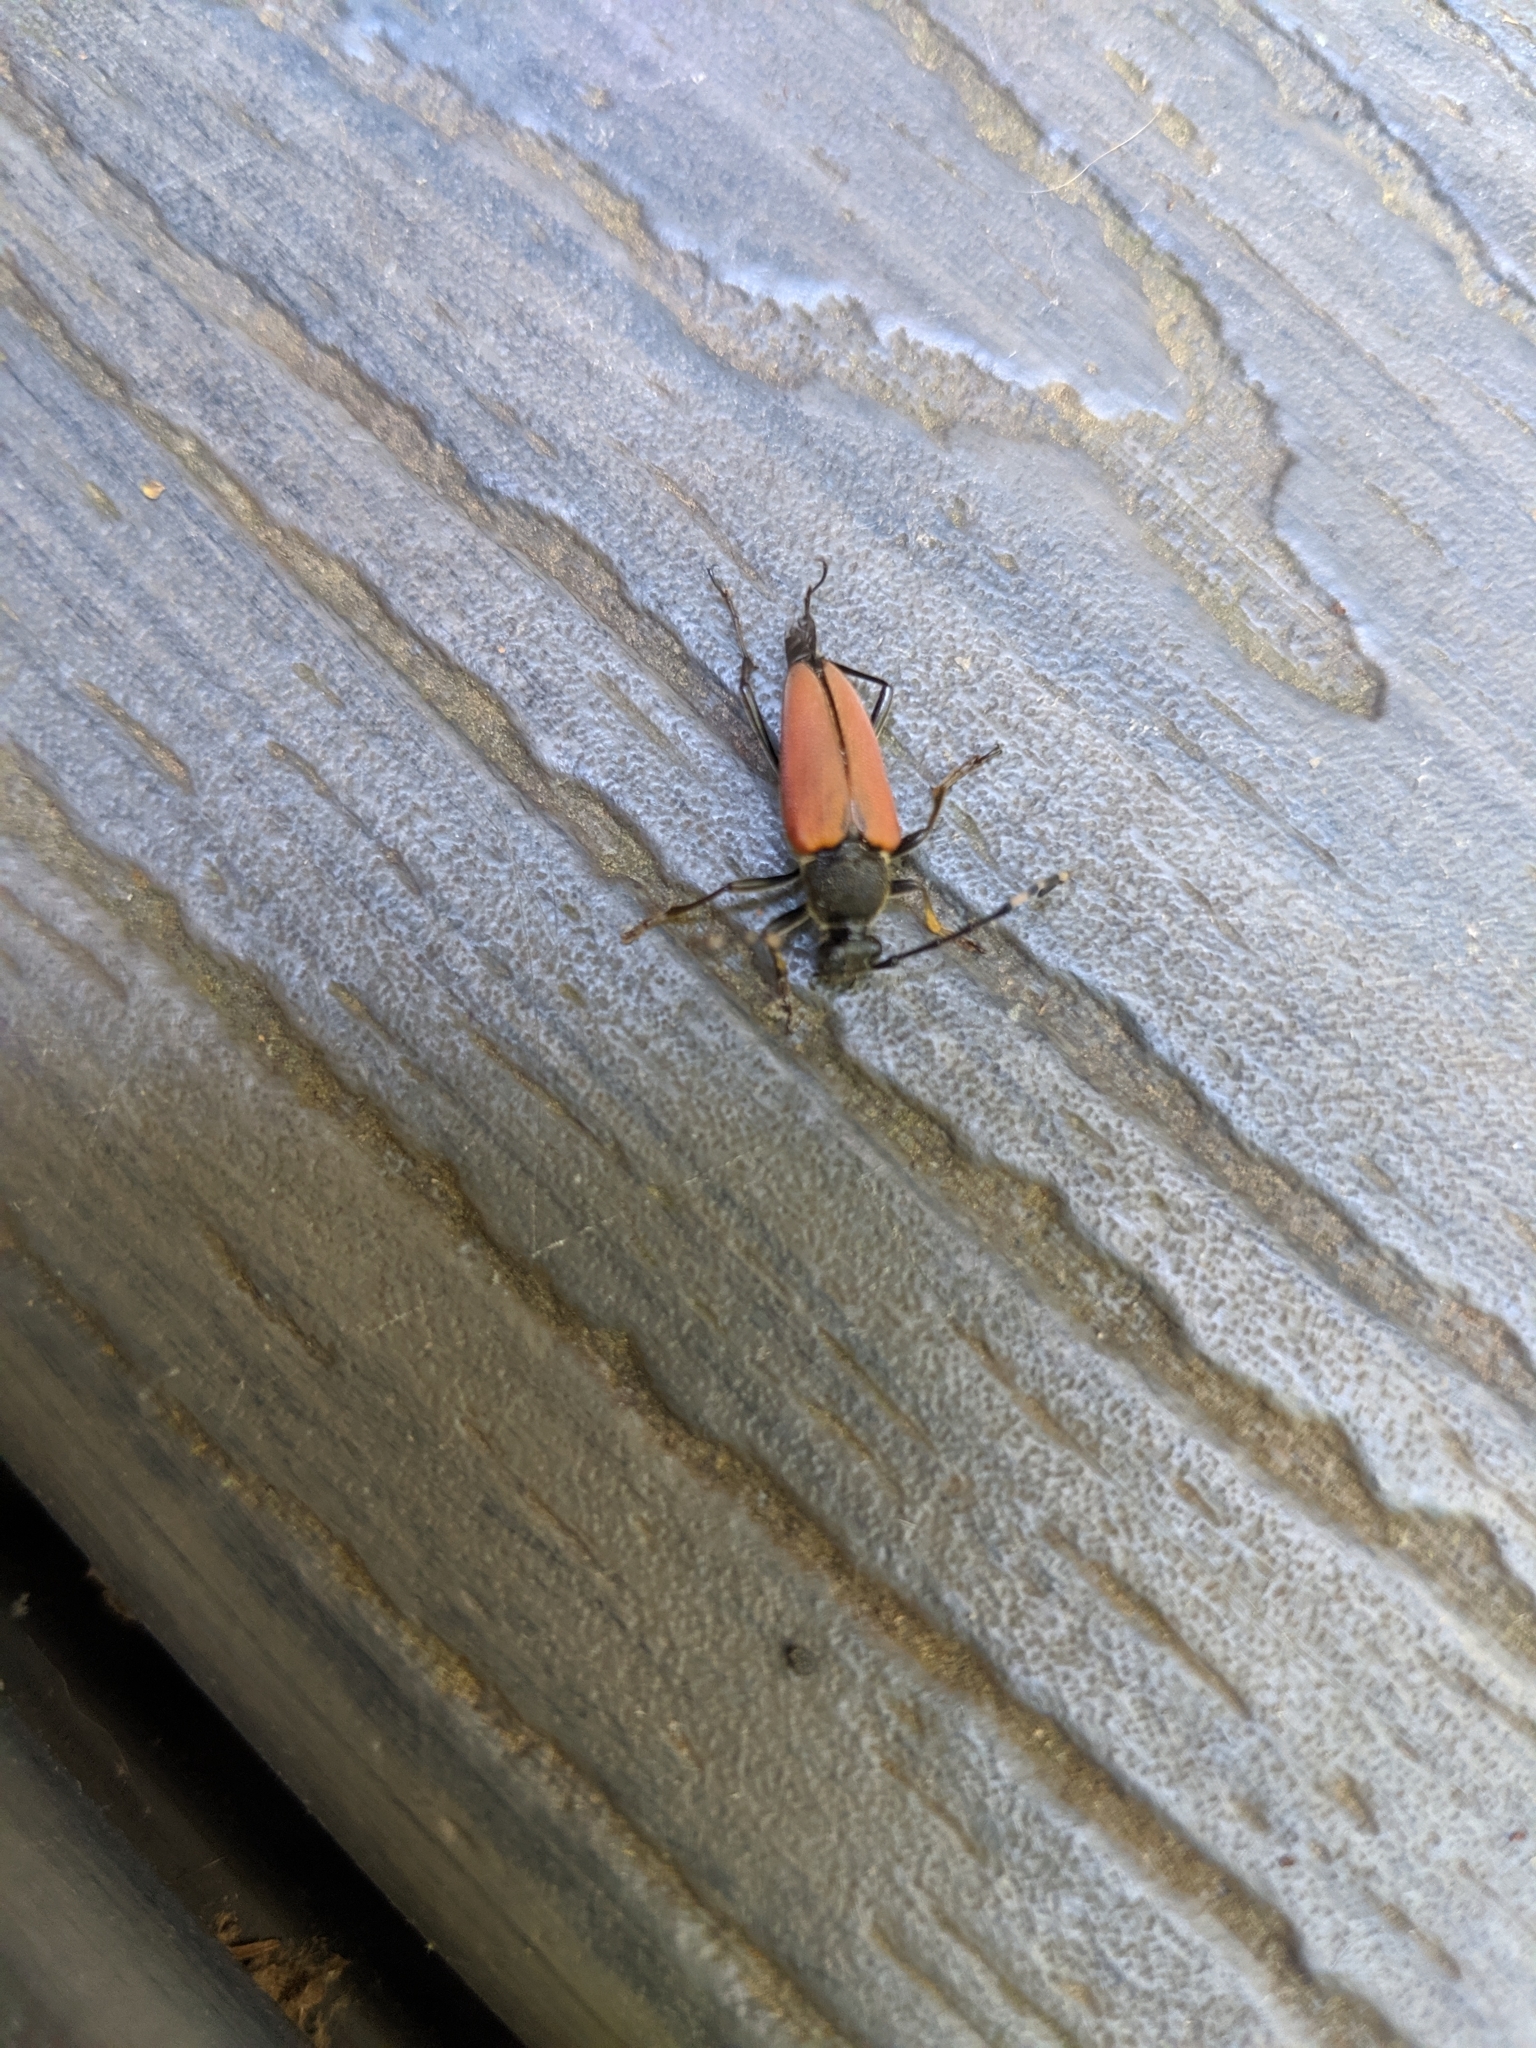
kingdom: Animalia
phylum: Arthropoda
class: Insecta
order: Coleoptera
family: Cerambycidae
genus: Brachyleptura
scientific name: Brachyleptura rubrica
